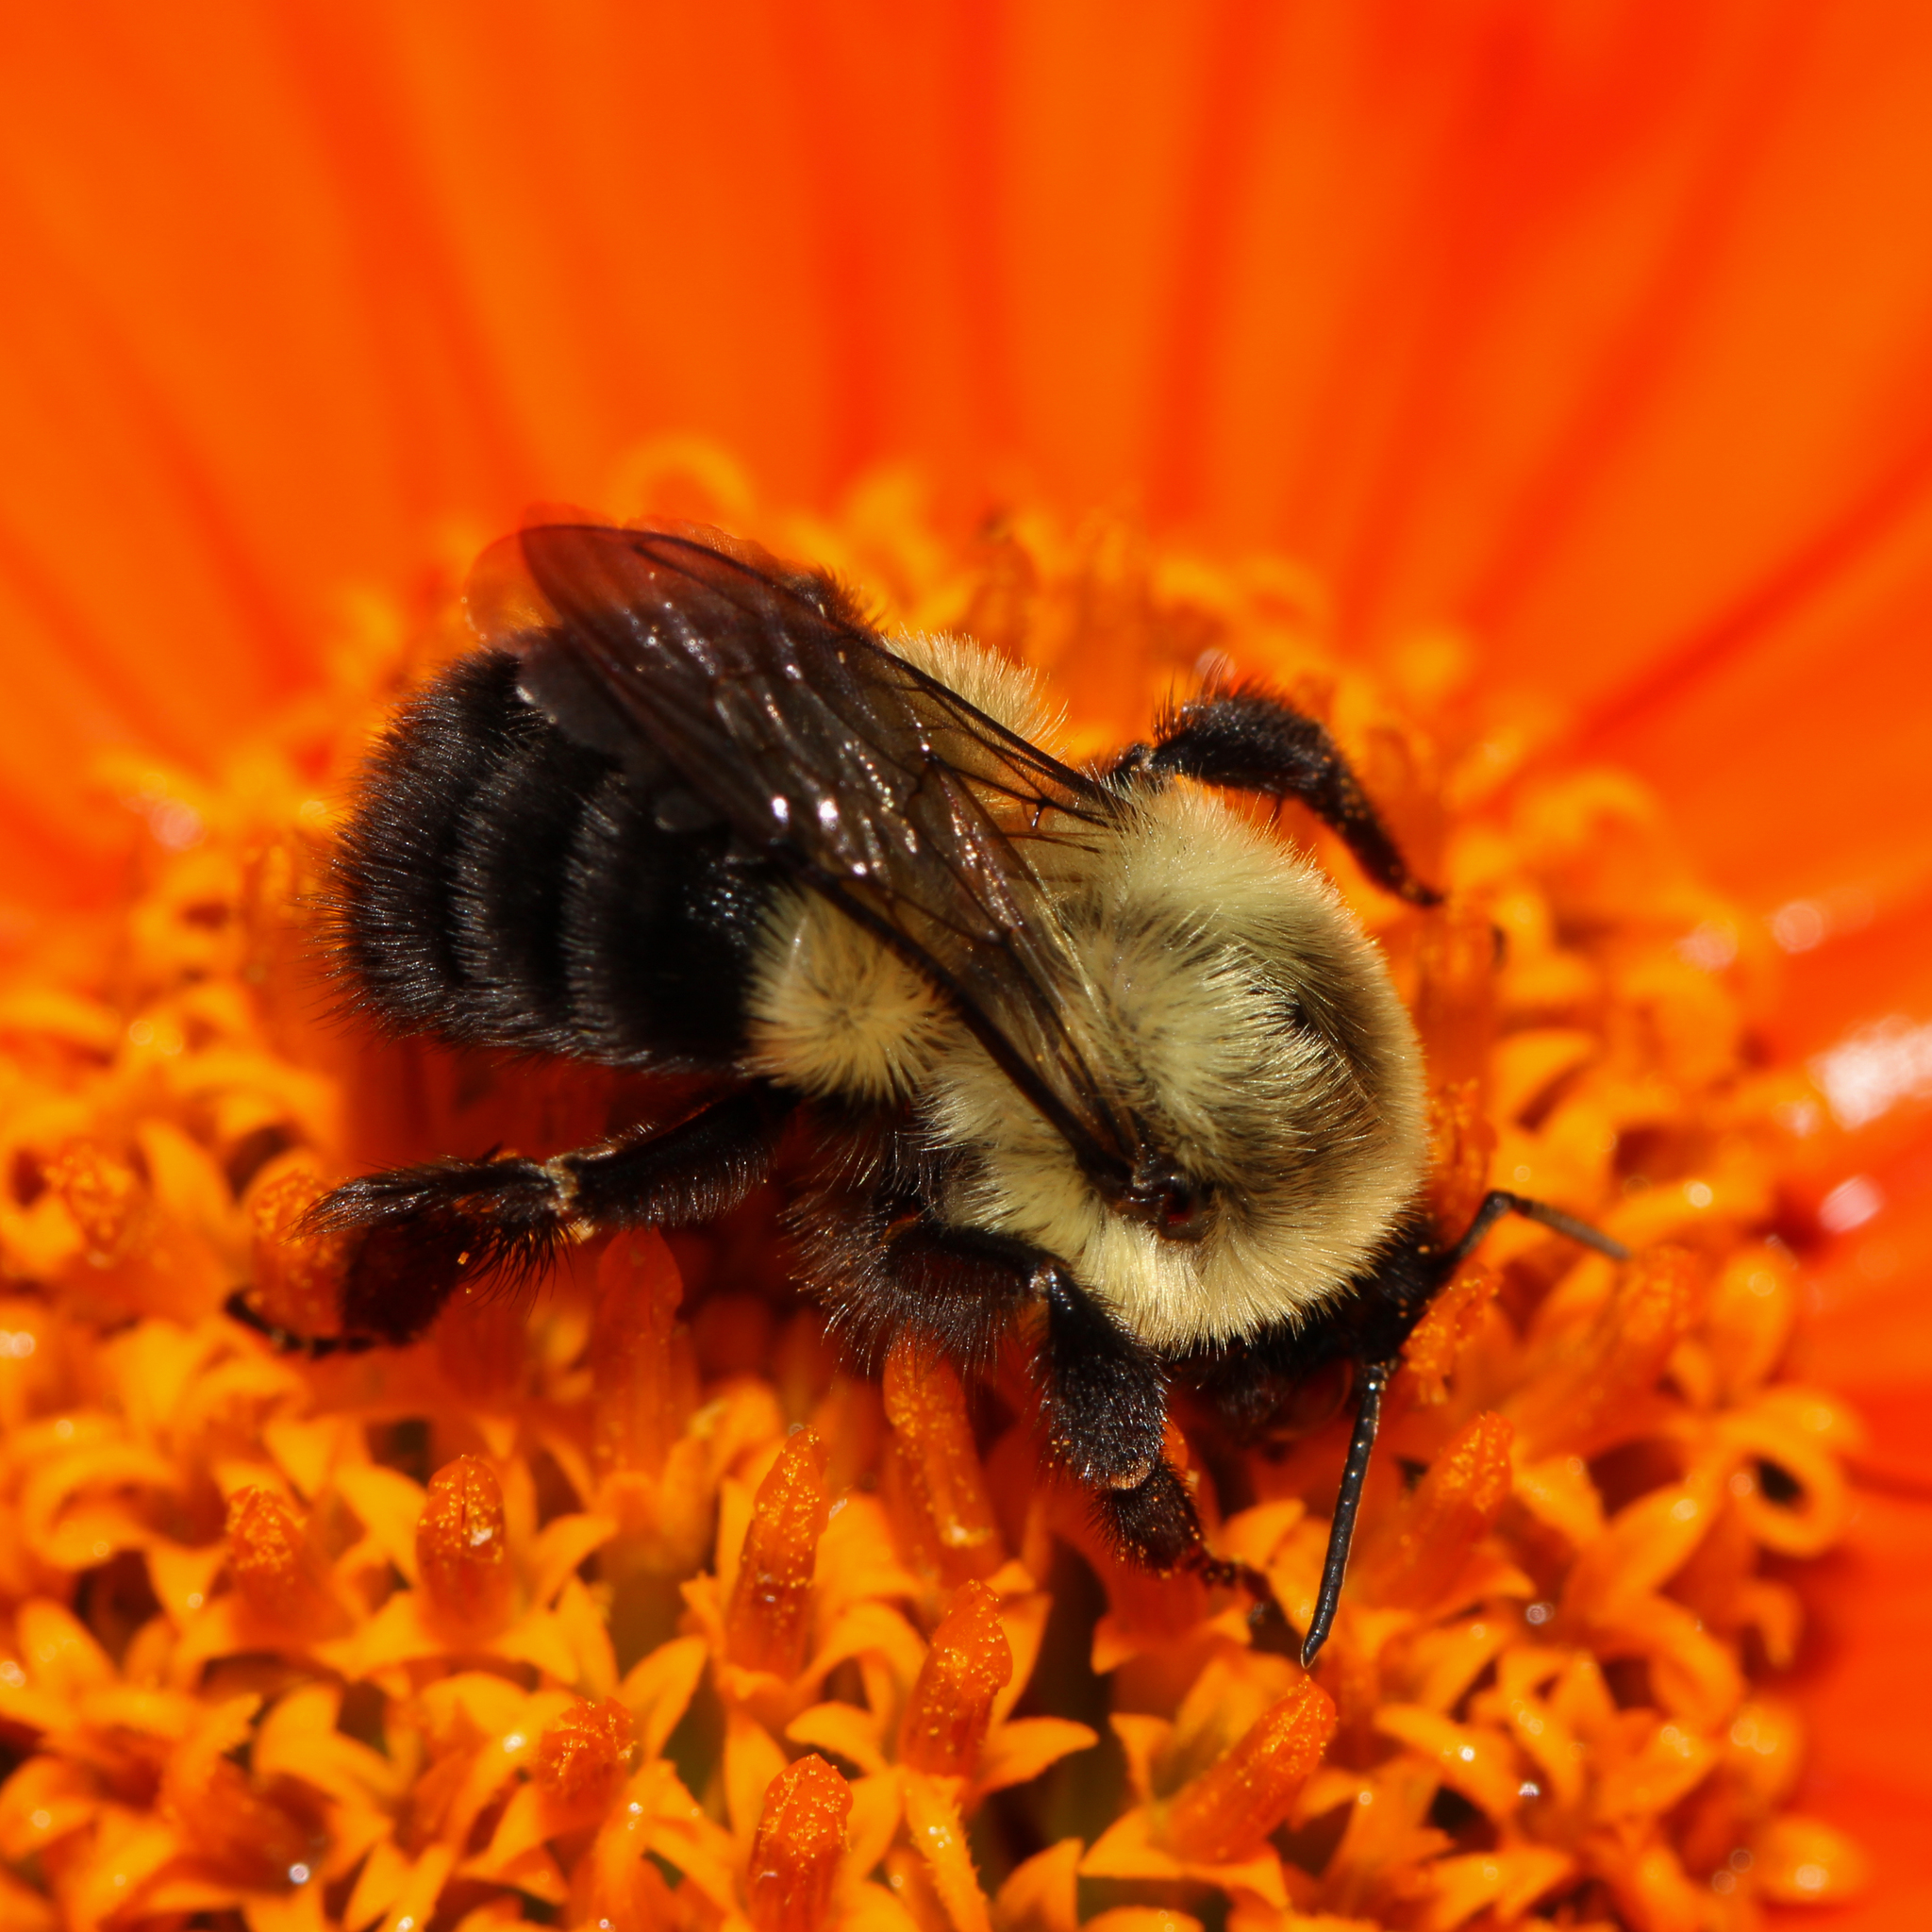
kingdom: Animalia
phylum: Arthropoda
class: Insecta
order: Hymenoptera
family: Apidae
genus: Bombus
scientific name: Bombus impatiens
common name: Common eastern bumble bee
